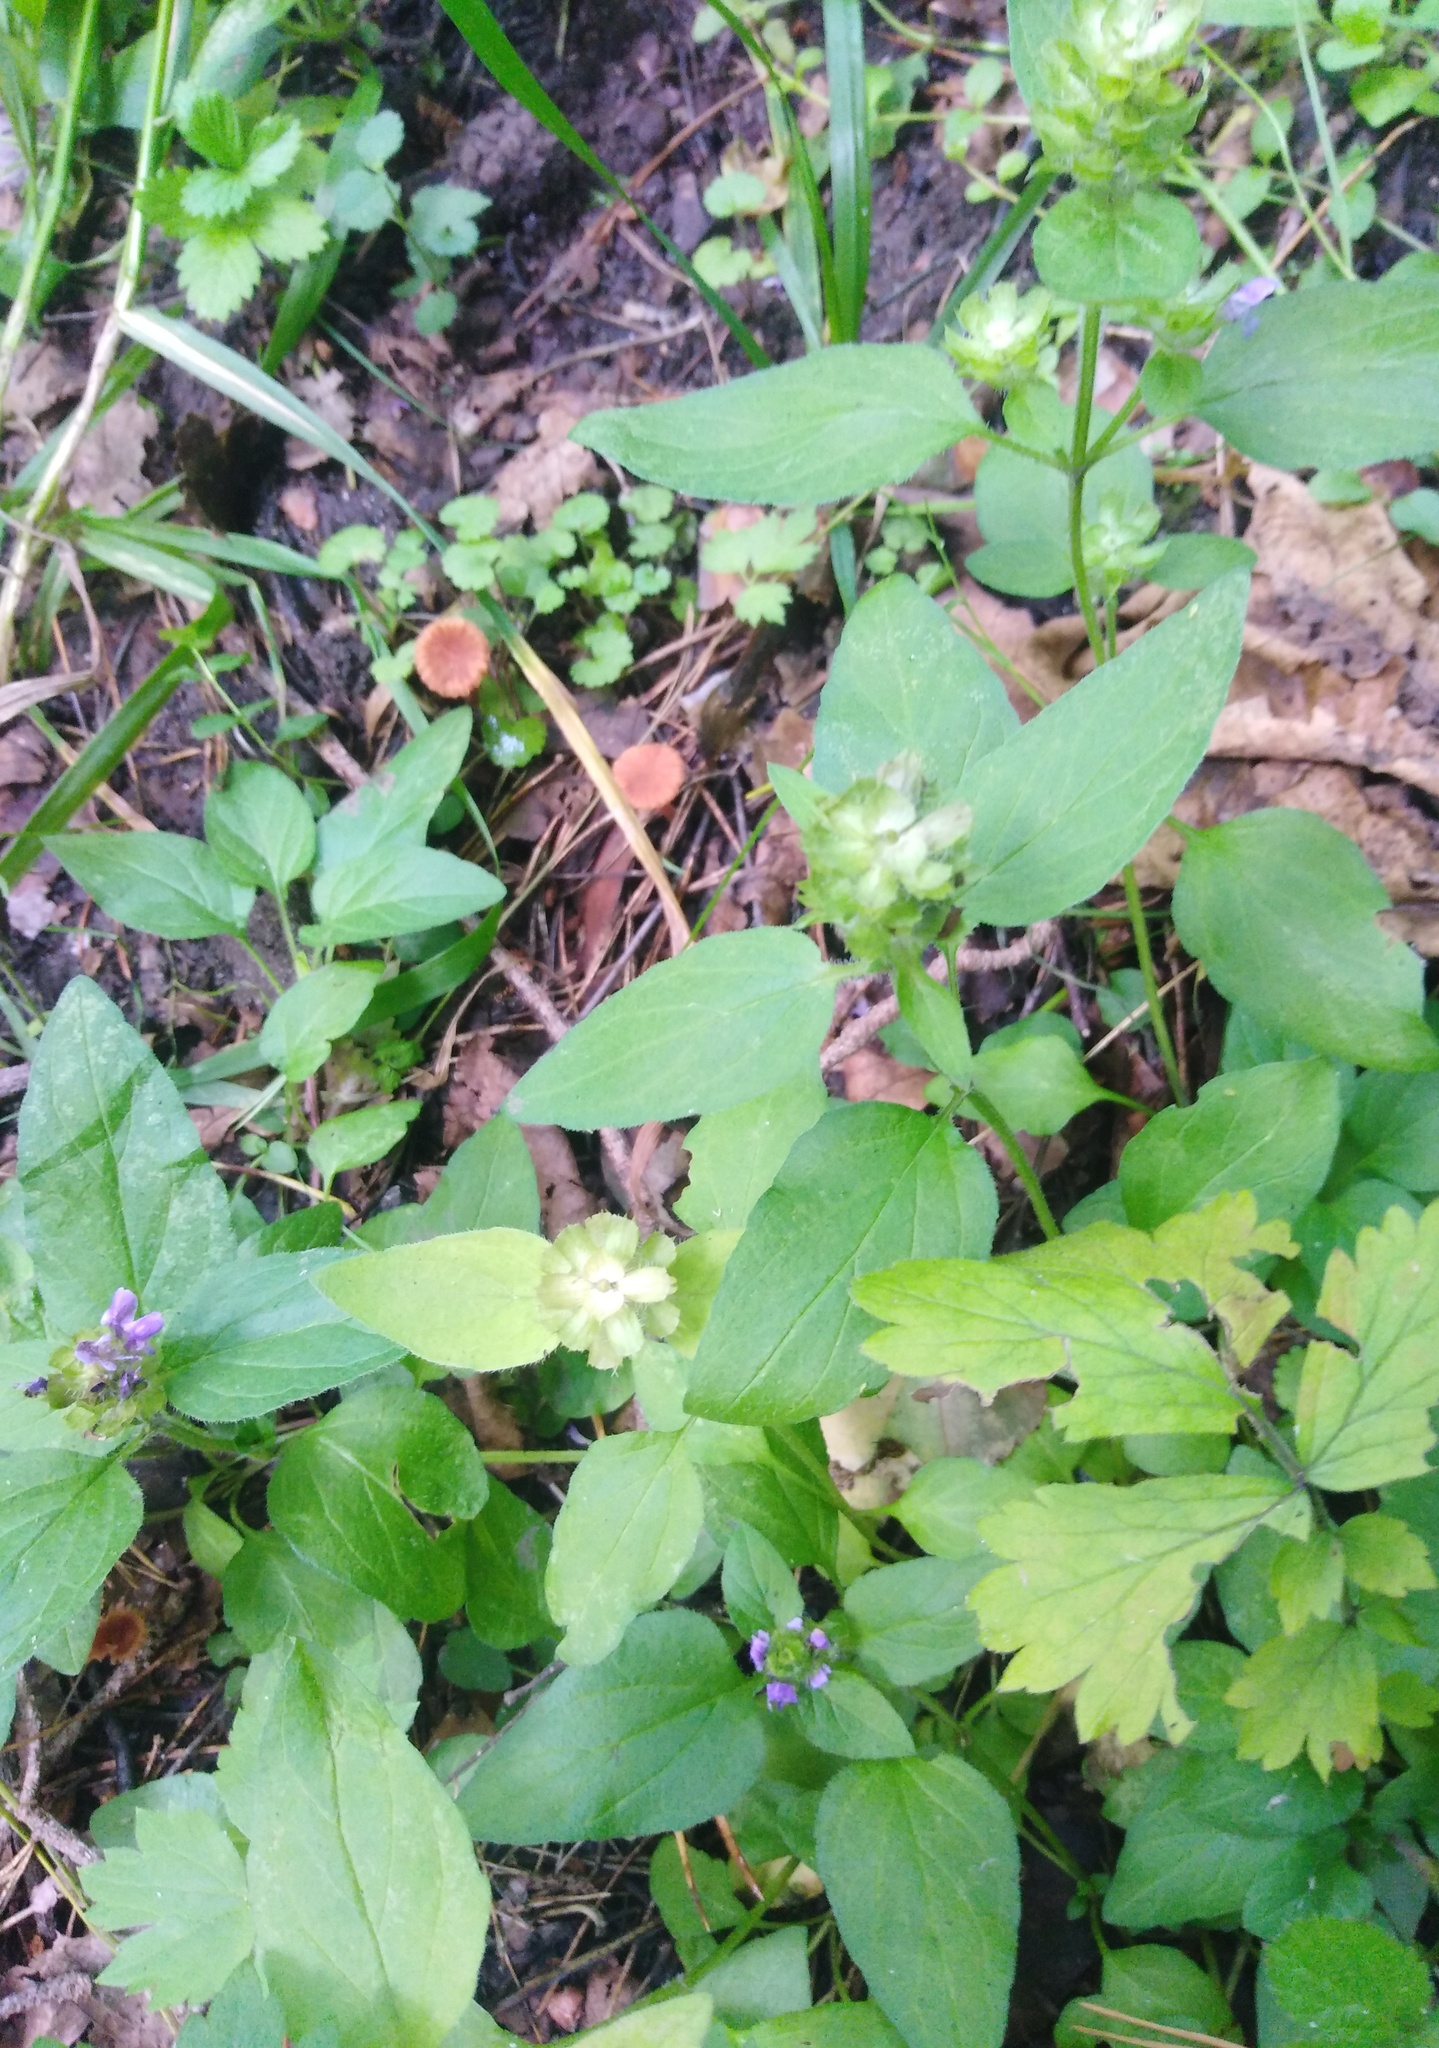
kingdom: Plantae
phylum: Tracheophyta
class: Magnoliopsida
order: Lamiales
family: Lamiaceae
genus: Prunella
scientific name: Prunella vulgaris
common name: Heal-all
